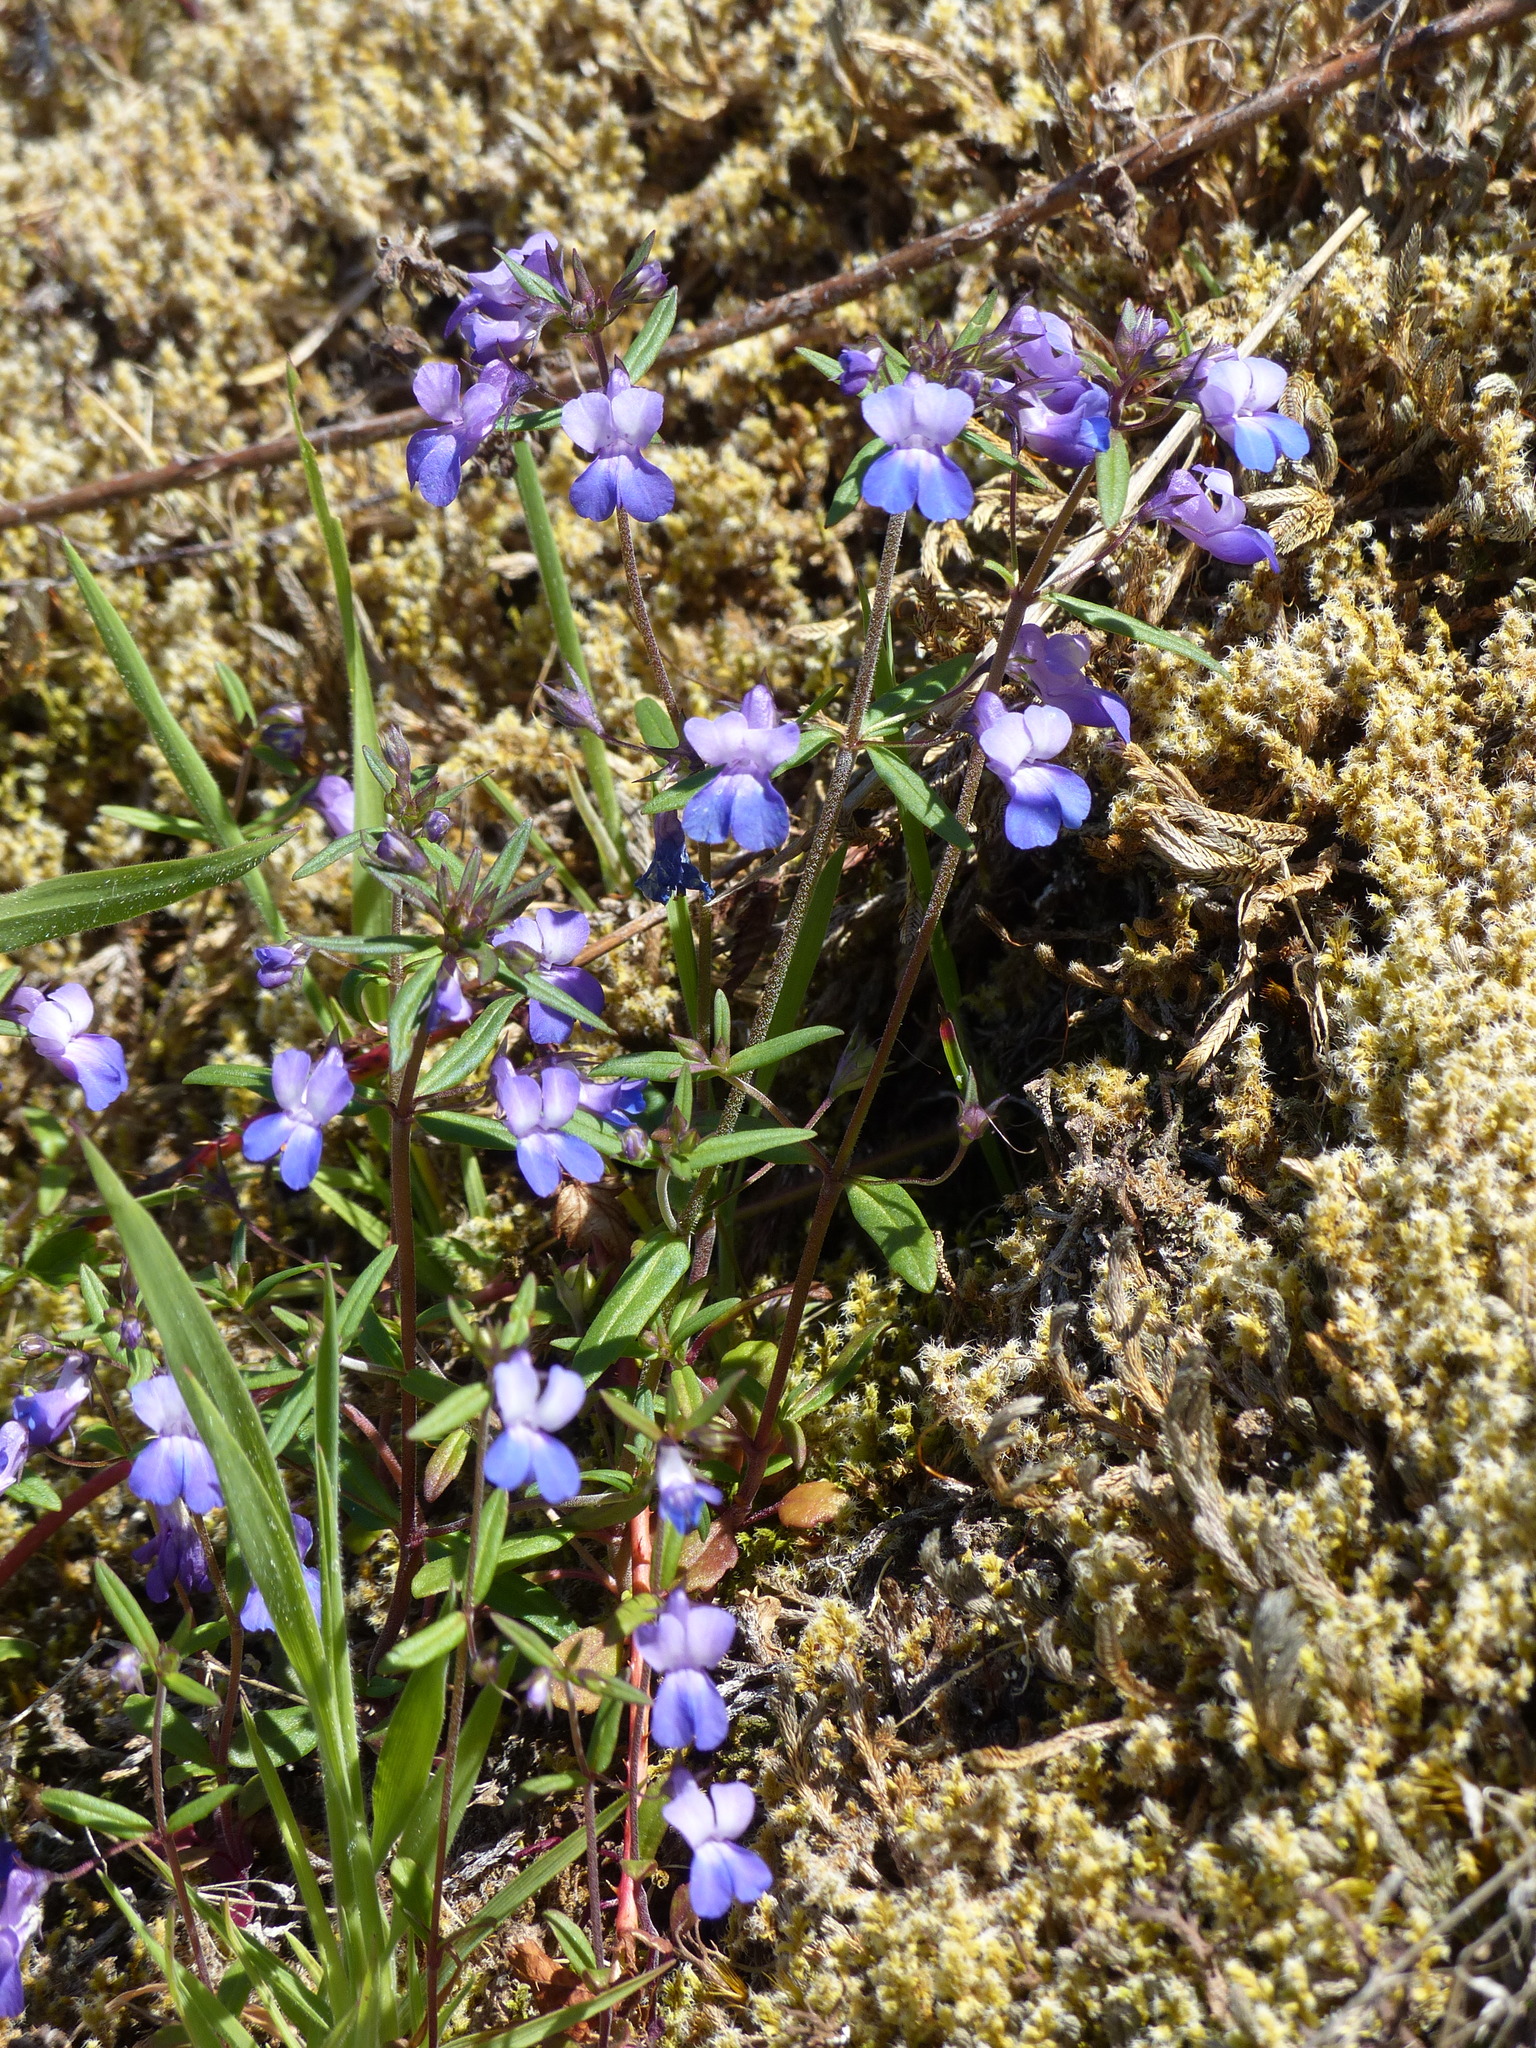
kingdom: Plantae
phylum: Tracheophyta
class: Magnoliopsida
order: Lamiales
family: Plantaginaceae
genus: Collinsia
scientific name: Collinsia grandiflora
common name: Large-flower blue-eyed-mary
